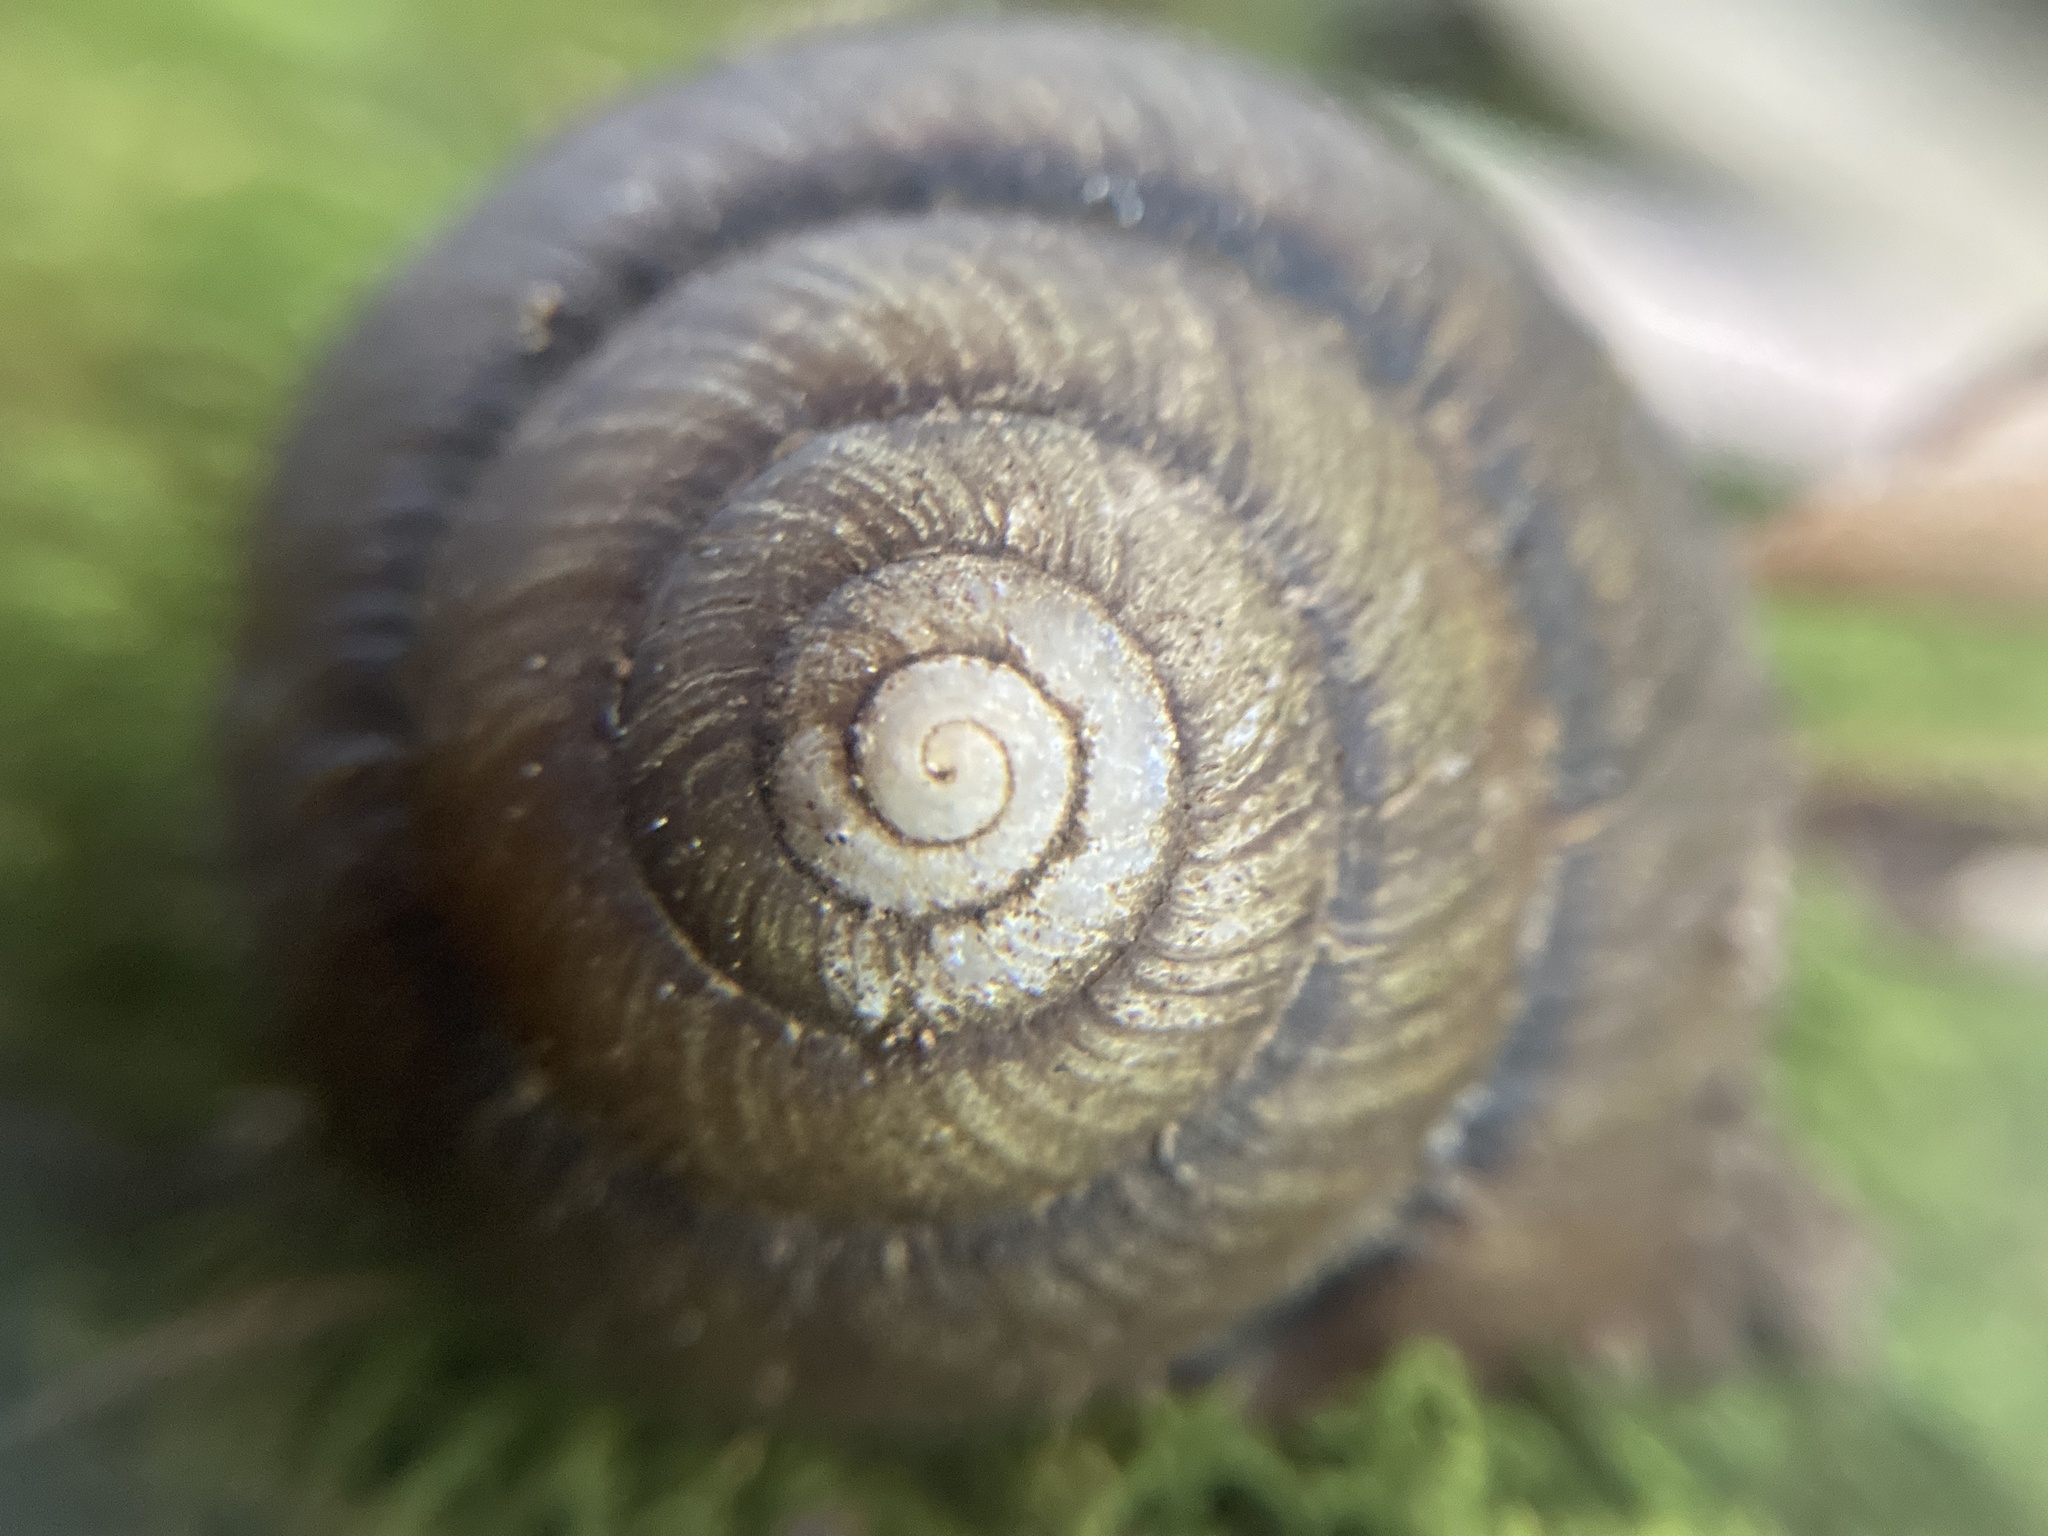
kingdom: Animalia
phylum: Mollusca
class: Gastropoda
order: Stylommatophora
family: Camaenidae
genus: Sauroconcha
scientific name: Sauroconcha gulosa
